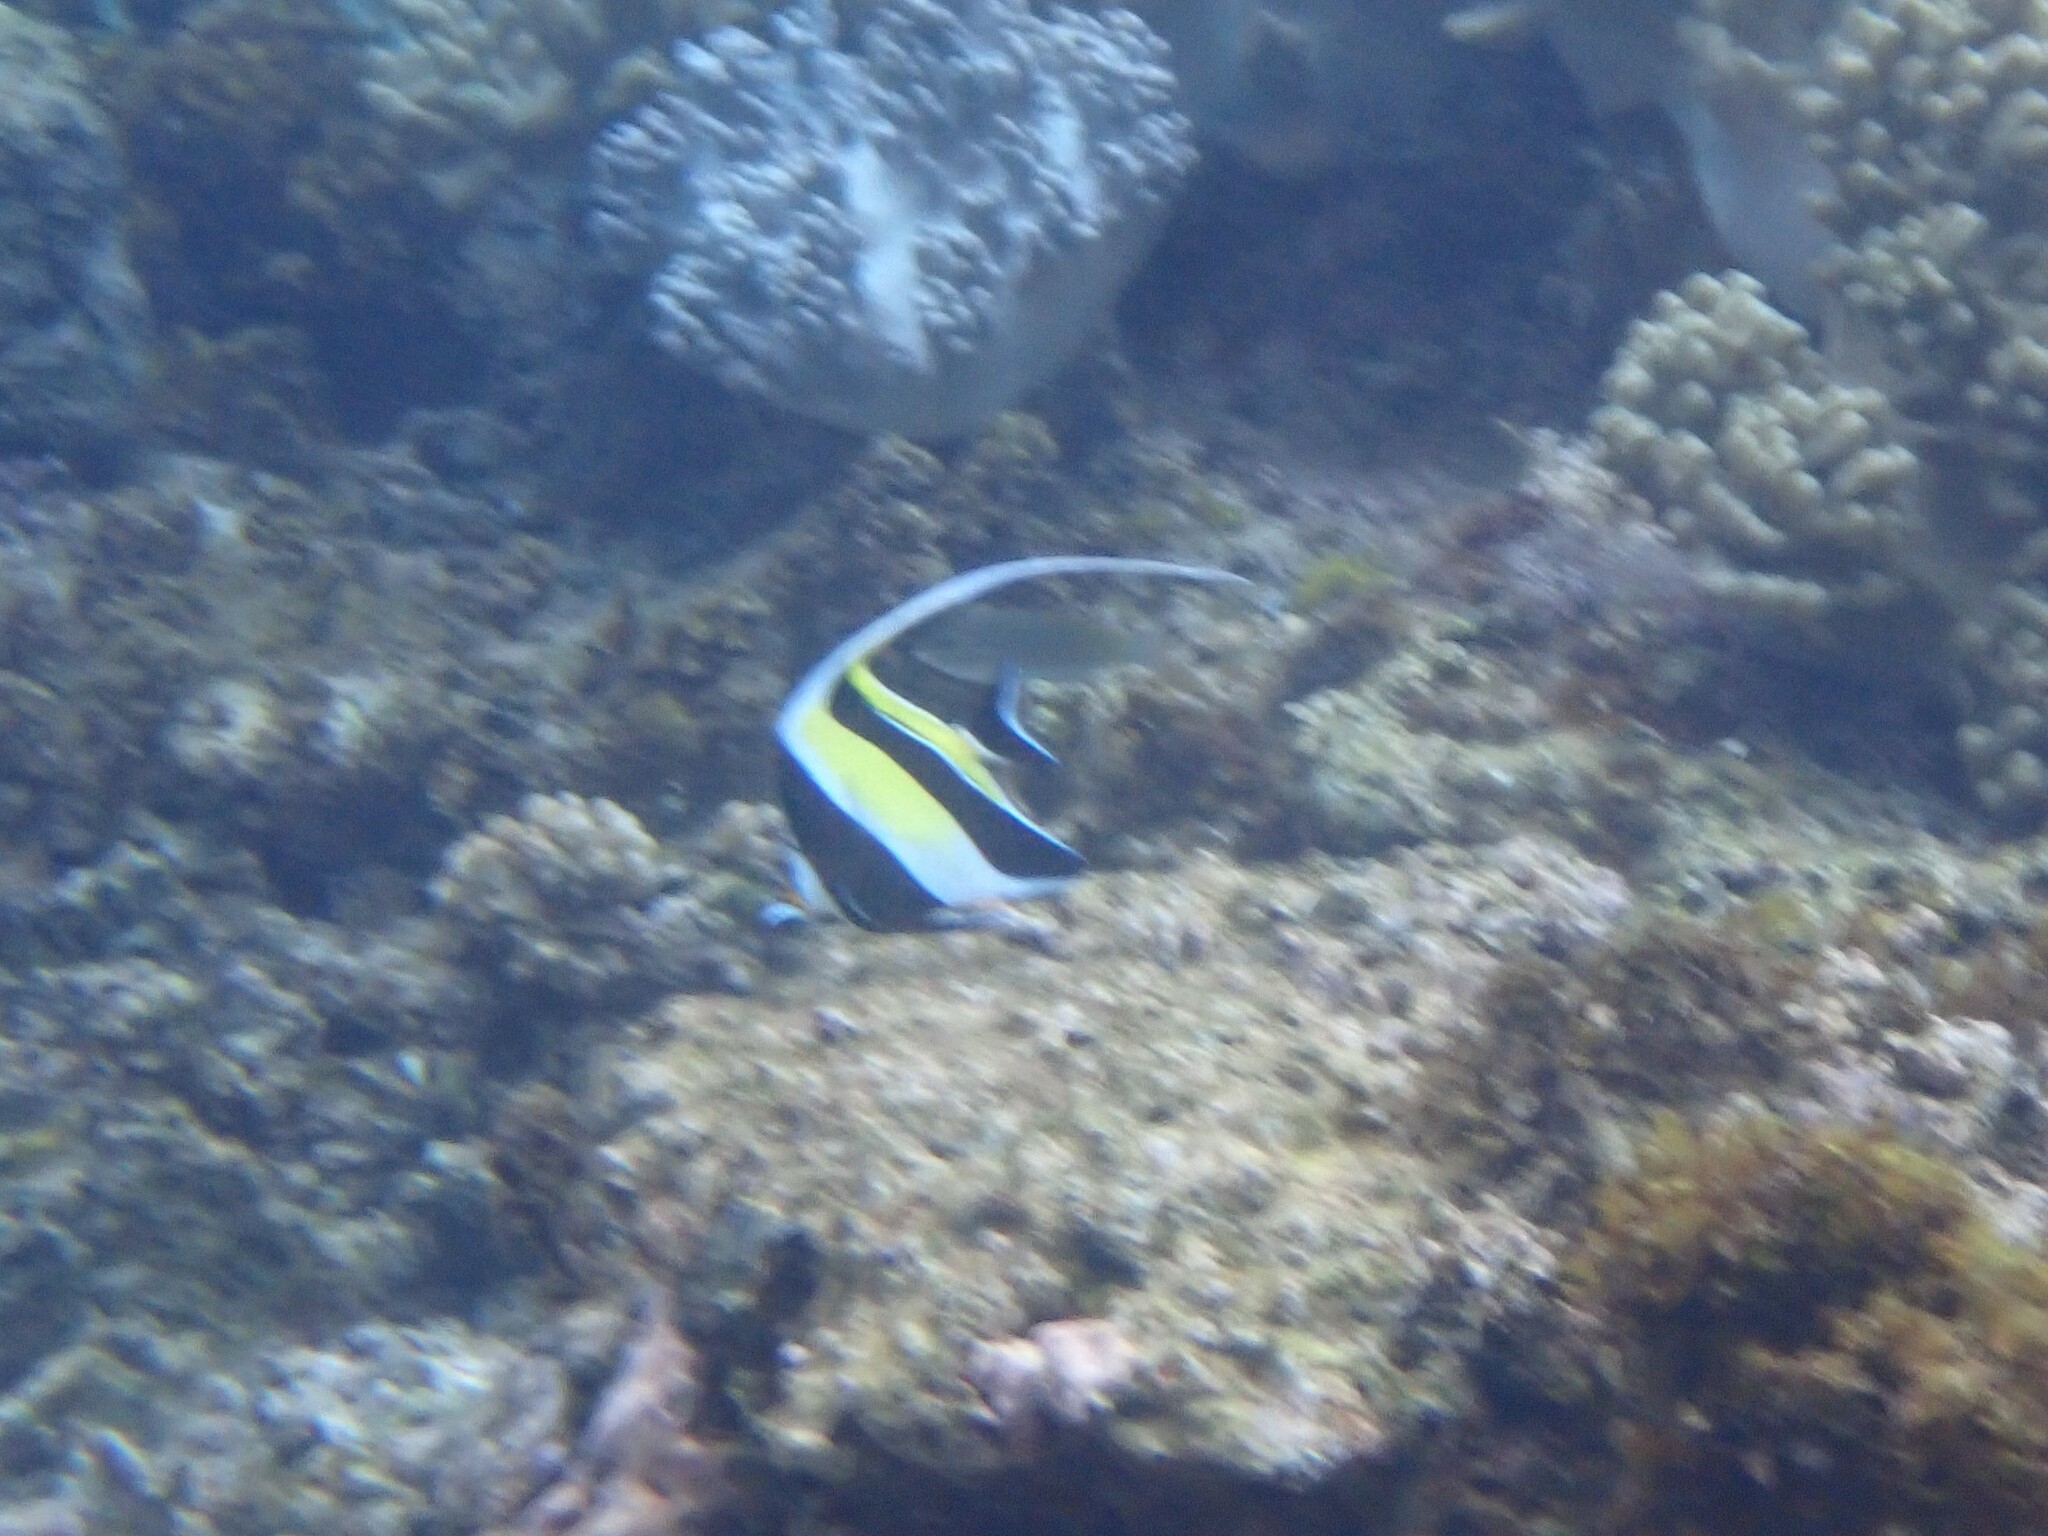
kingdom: Animalia
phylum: Chordata
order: Perciformes
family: Zanclidae
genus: Zanclus
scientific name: Zanclus cornutus
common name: Moorish idol
